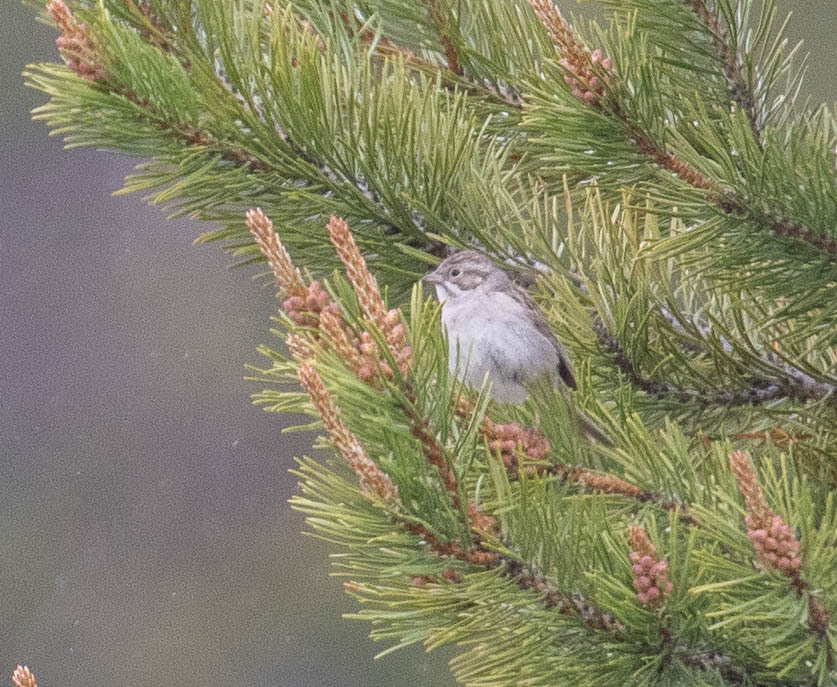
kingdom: Animalia
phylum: Chordata
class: Aves
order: Passeriformes
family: Passerellidae
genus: Spizella
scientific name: Spizella breweri
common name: Brewer's sparrow
